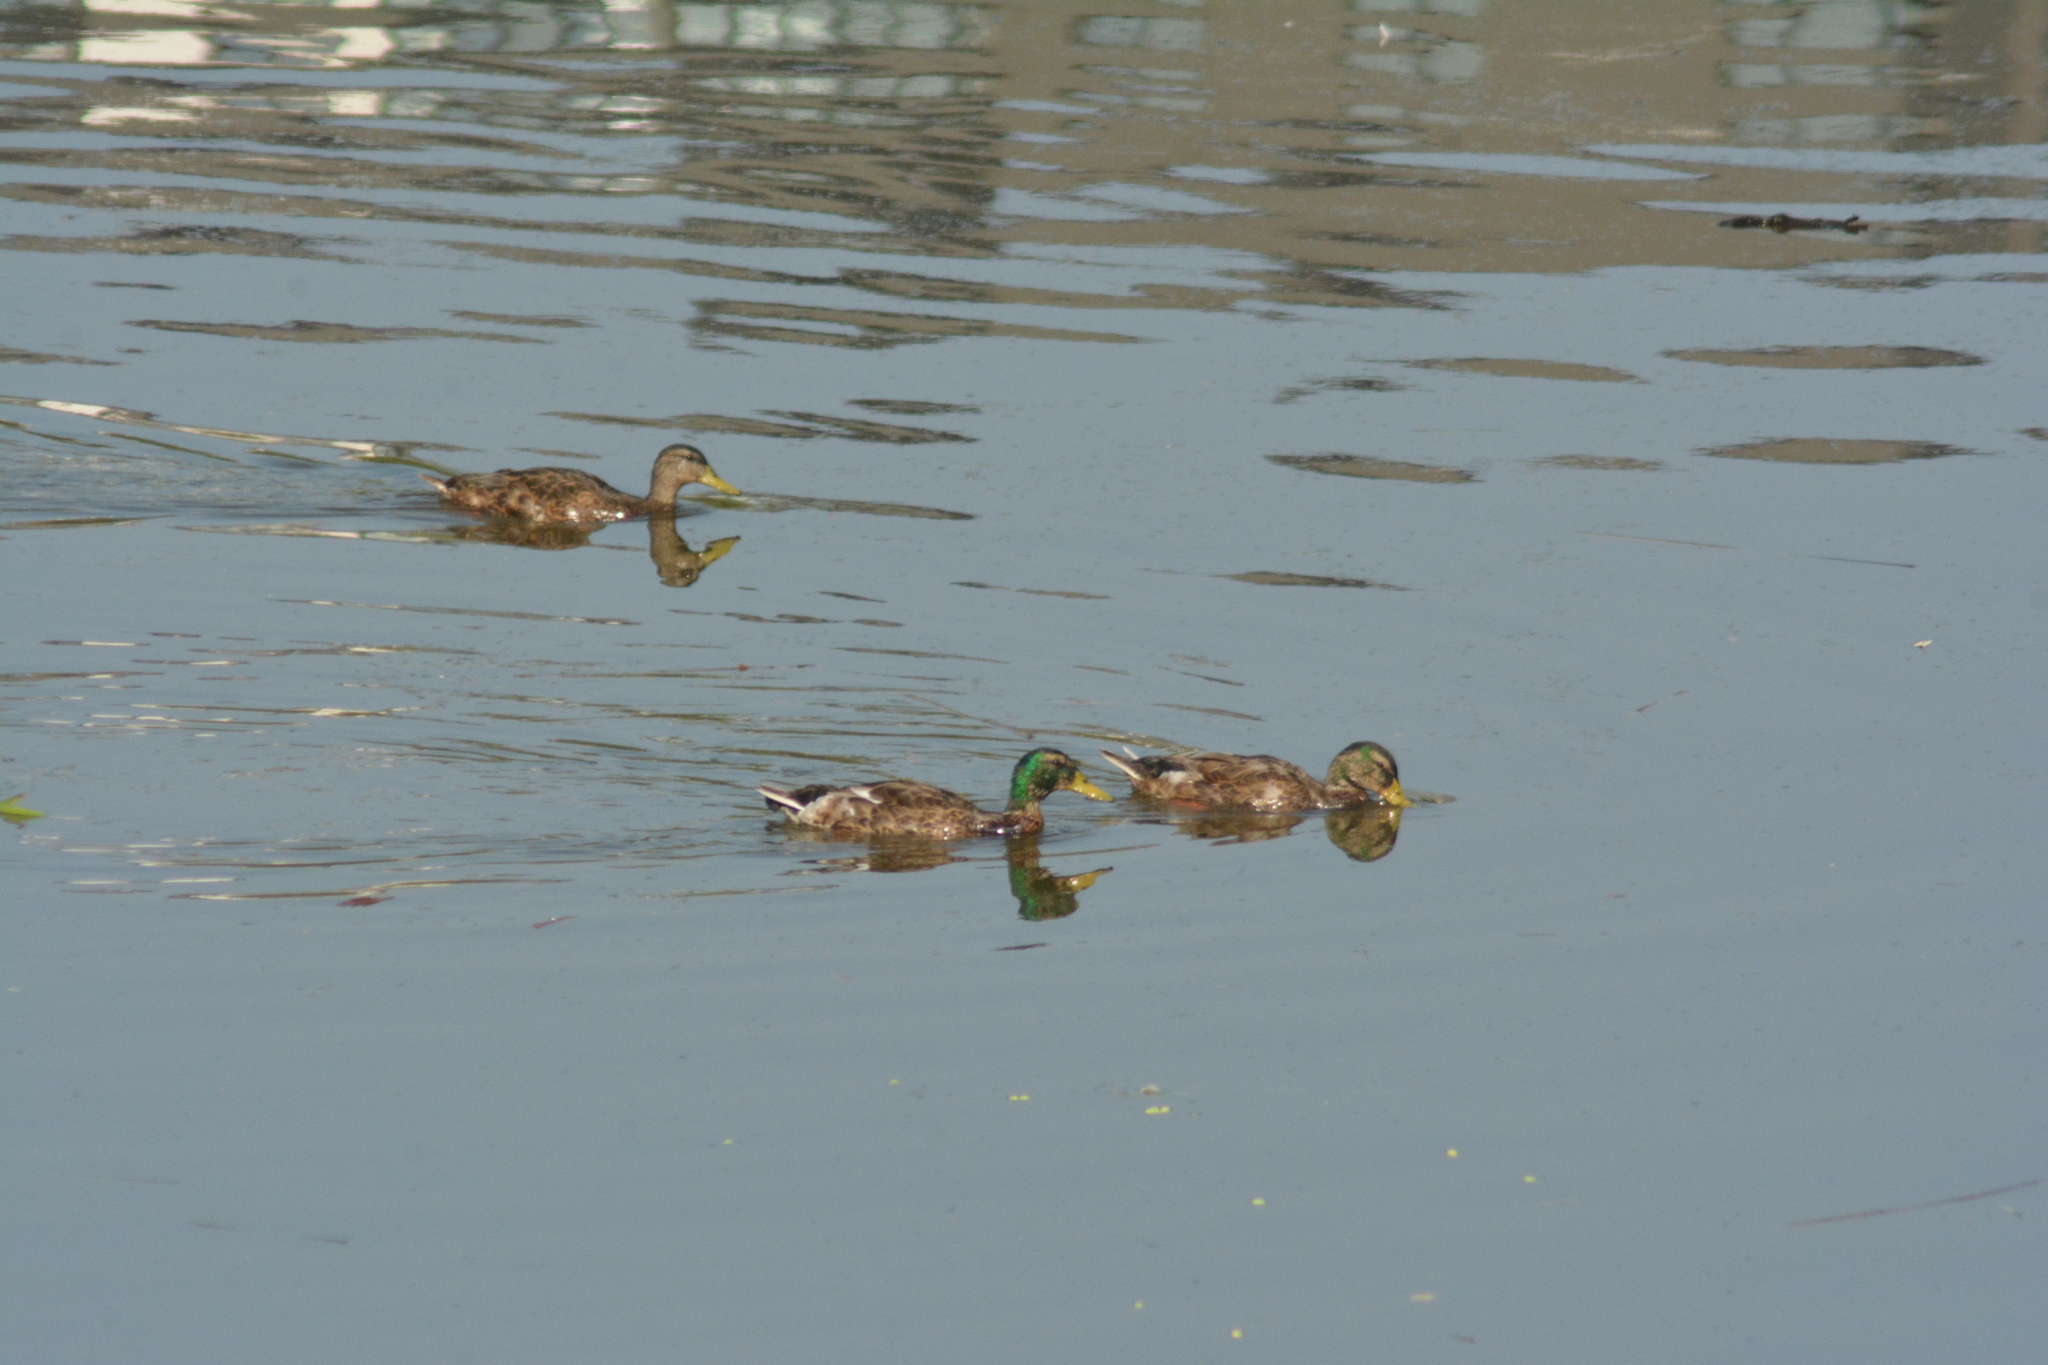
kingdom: Animalia
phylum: Chordata
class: Aves
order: Anseriformes
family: Anatidae
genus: Anas
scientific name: Anas platyrhynchos
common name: Mallard
